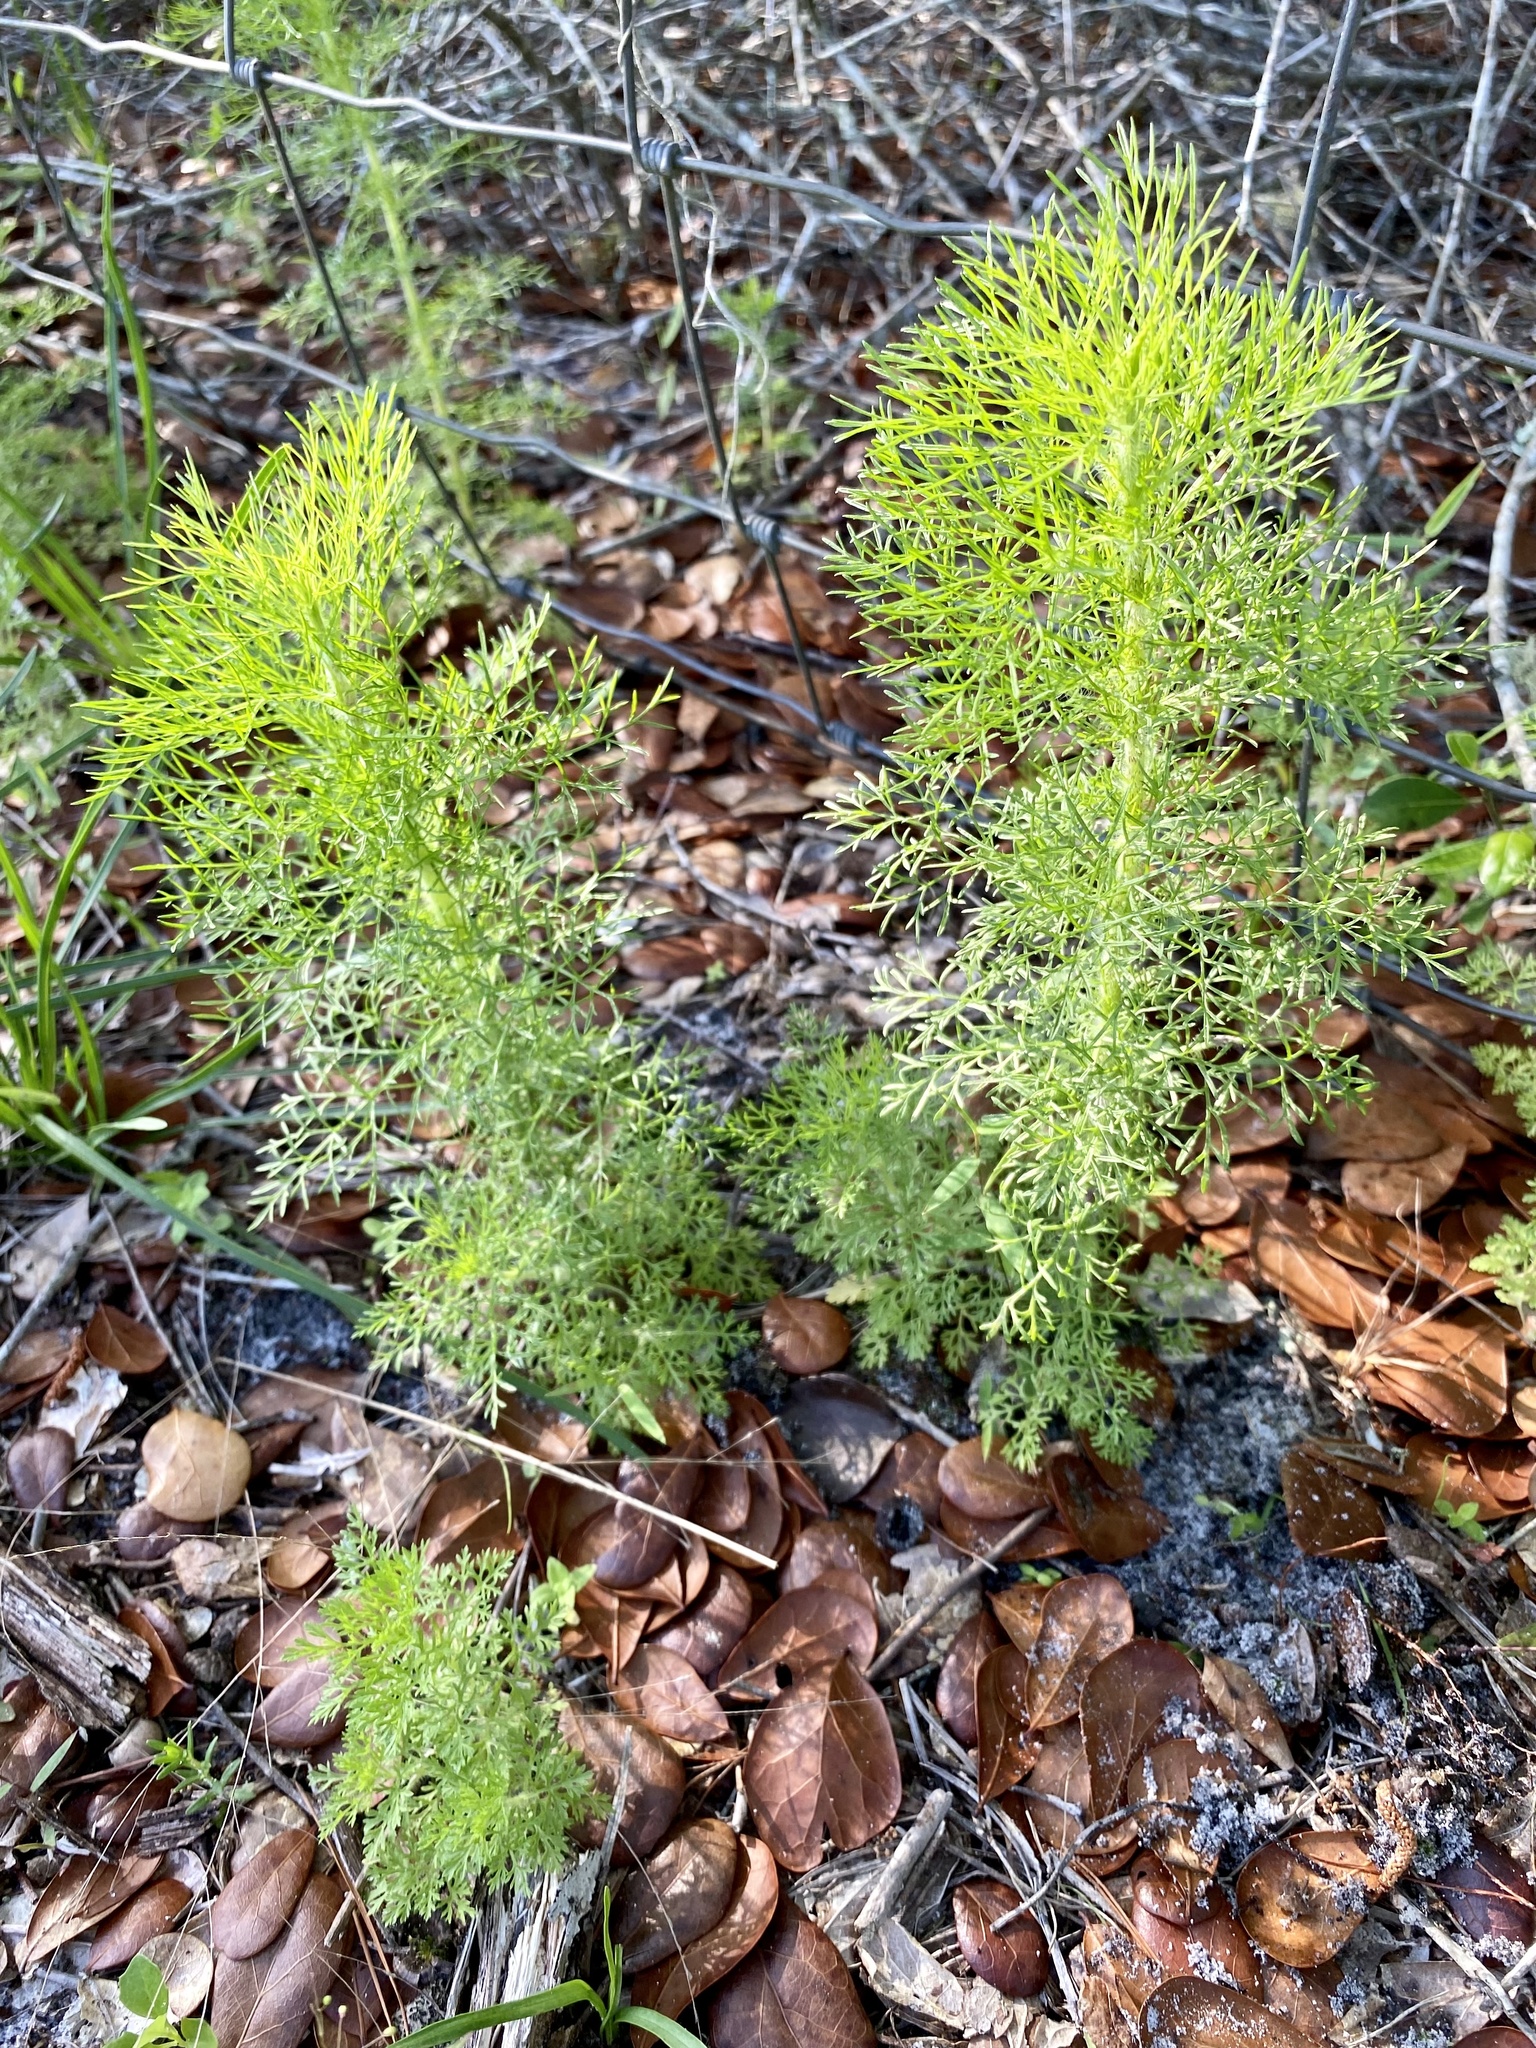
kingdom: Plantae
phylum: Tracheophyta
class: Magnoliopsida
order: Asterales
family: Asteraceae
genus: Eupatorium
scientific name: Eupatorium capillifolium
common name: Dog-fennel
